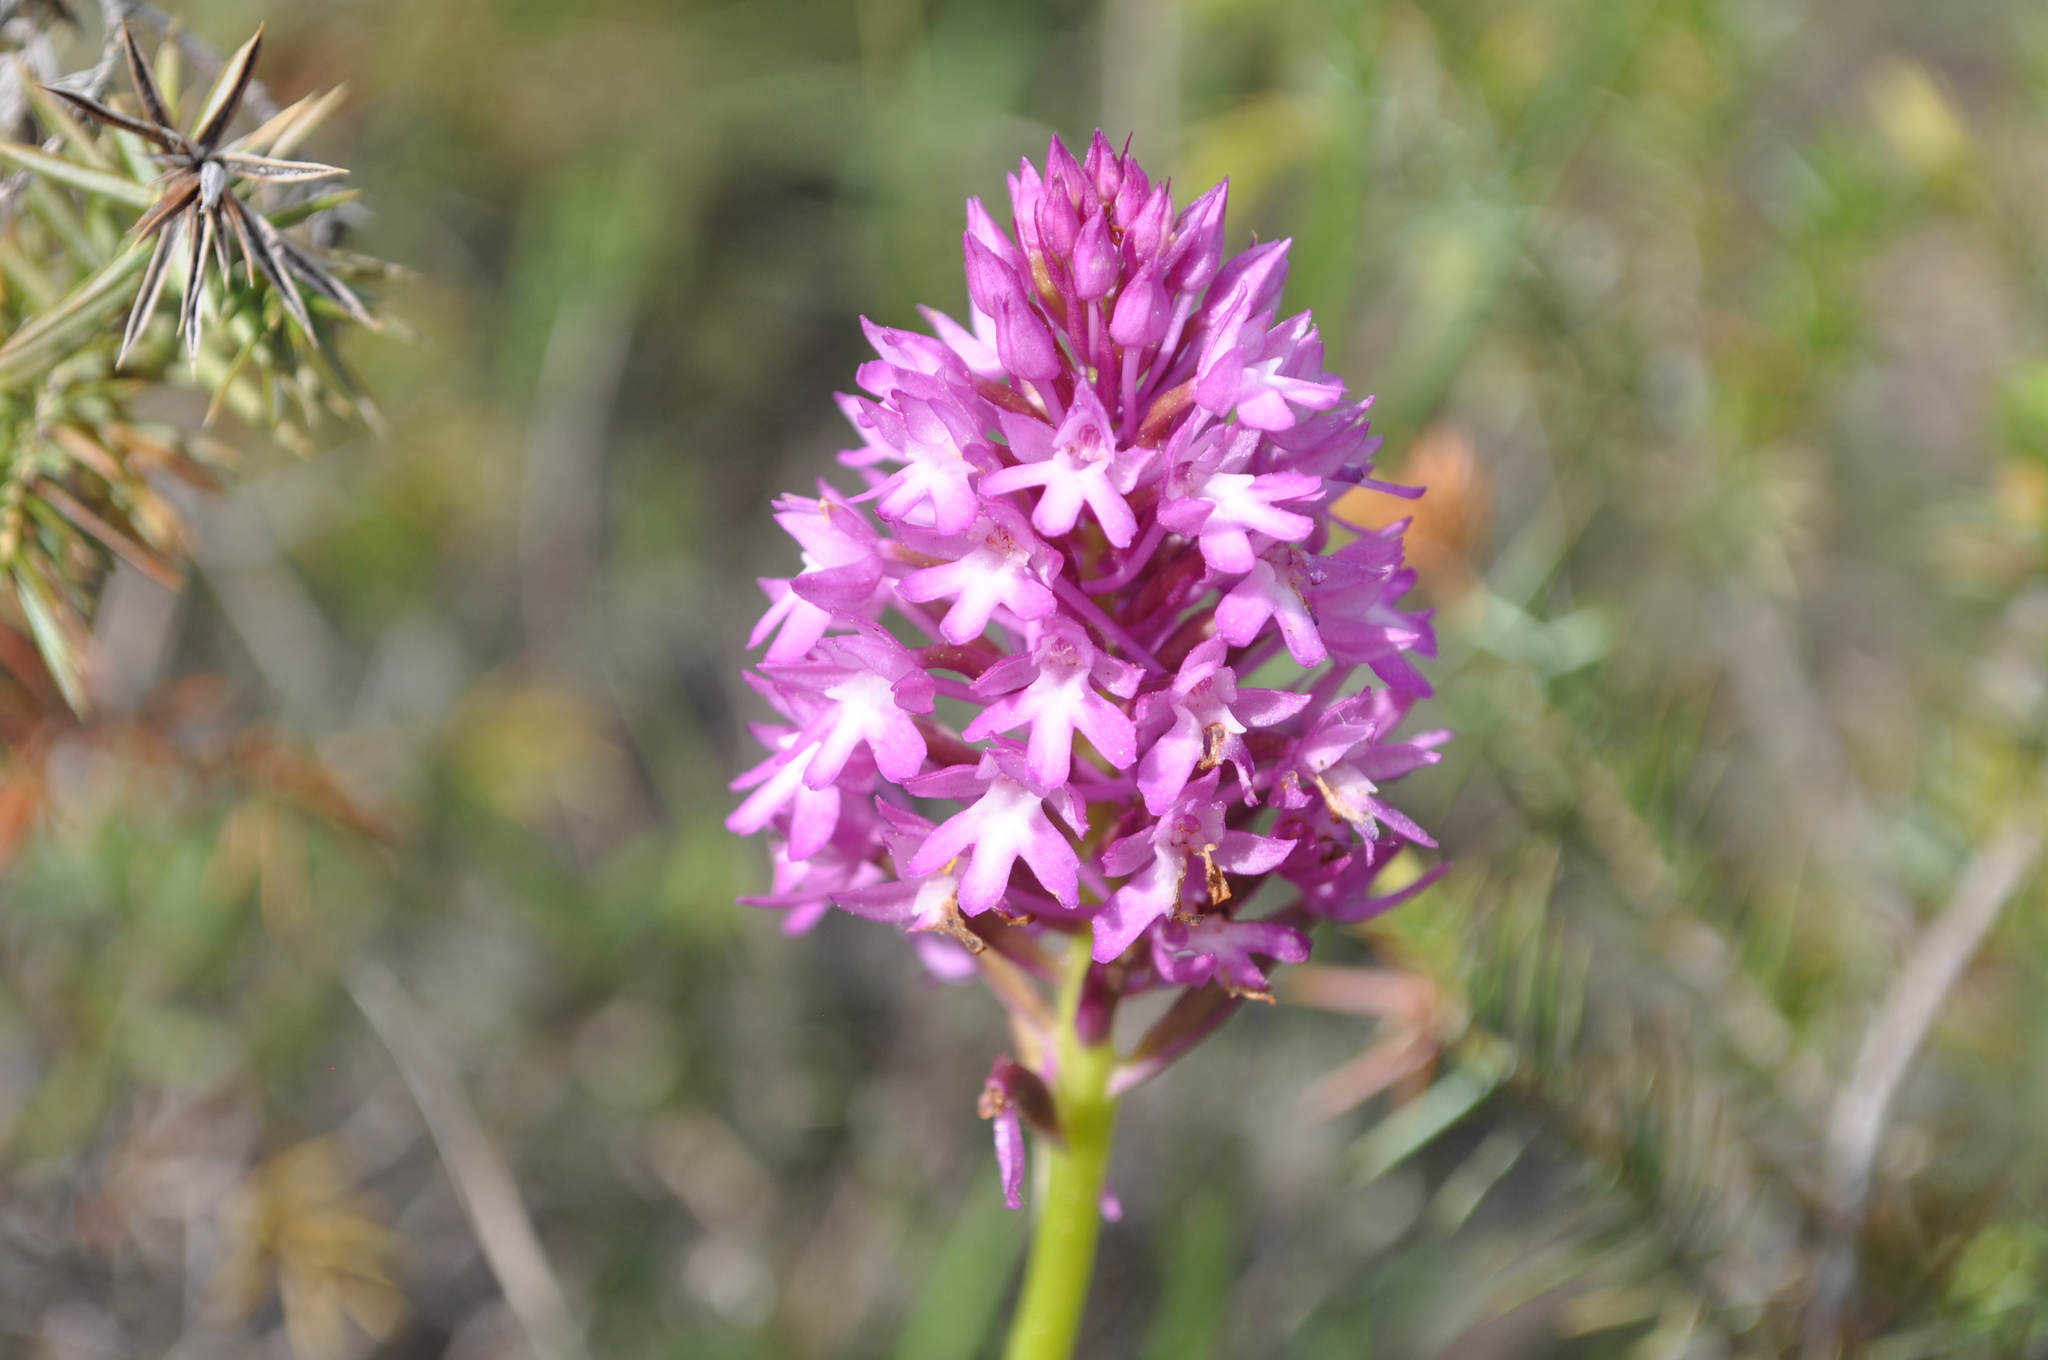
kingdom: Plantae
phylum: Tracheophyta
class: Liliopsida
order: Asparagales
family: Orchidaceae
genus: Anacamptis
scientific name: Anacamptis pyramidalis
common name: Pyramidal orchid
